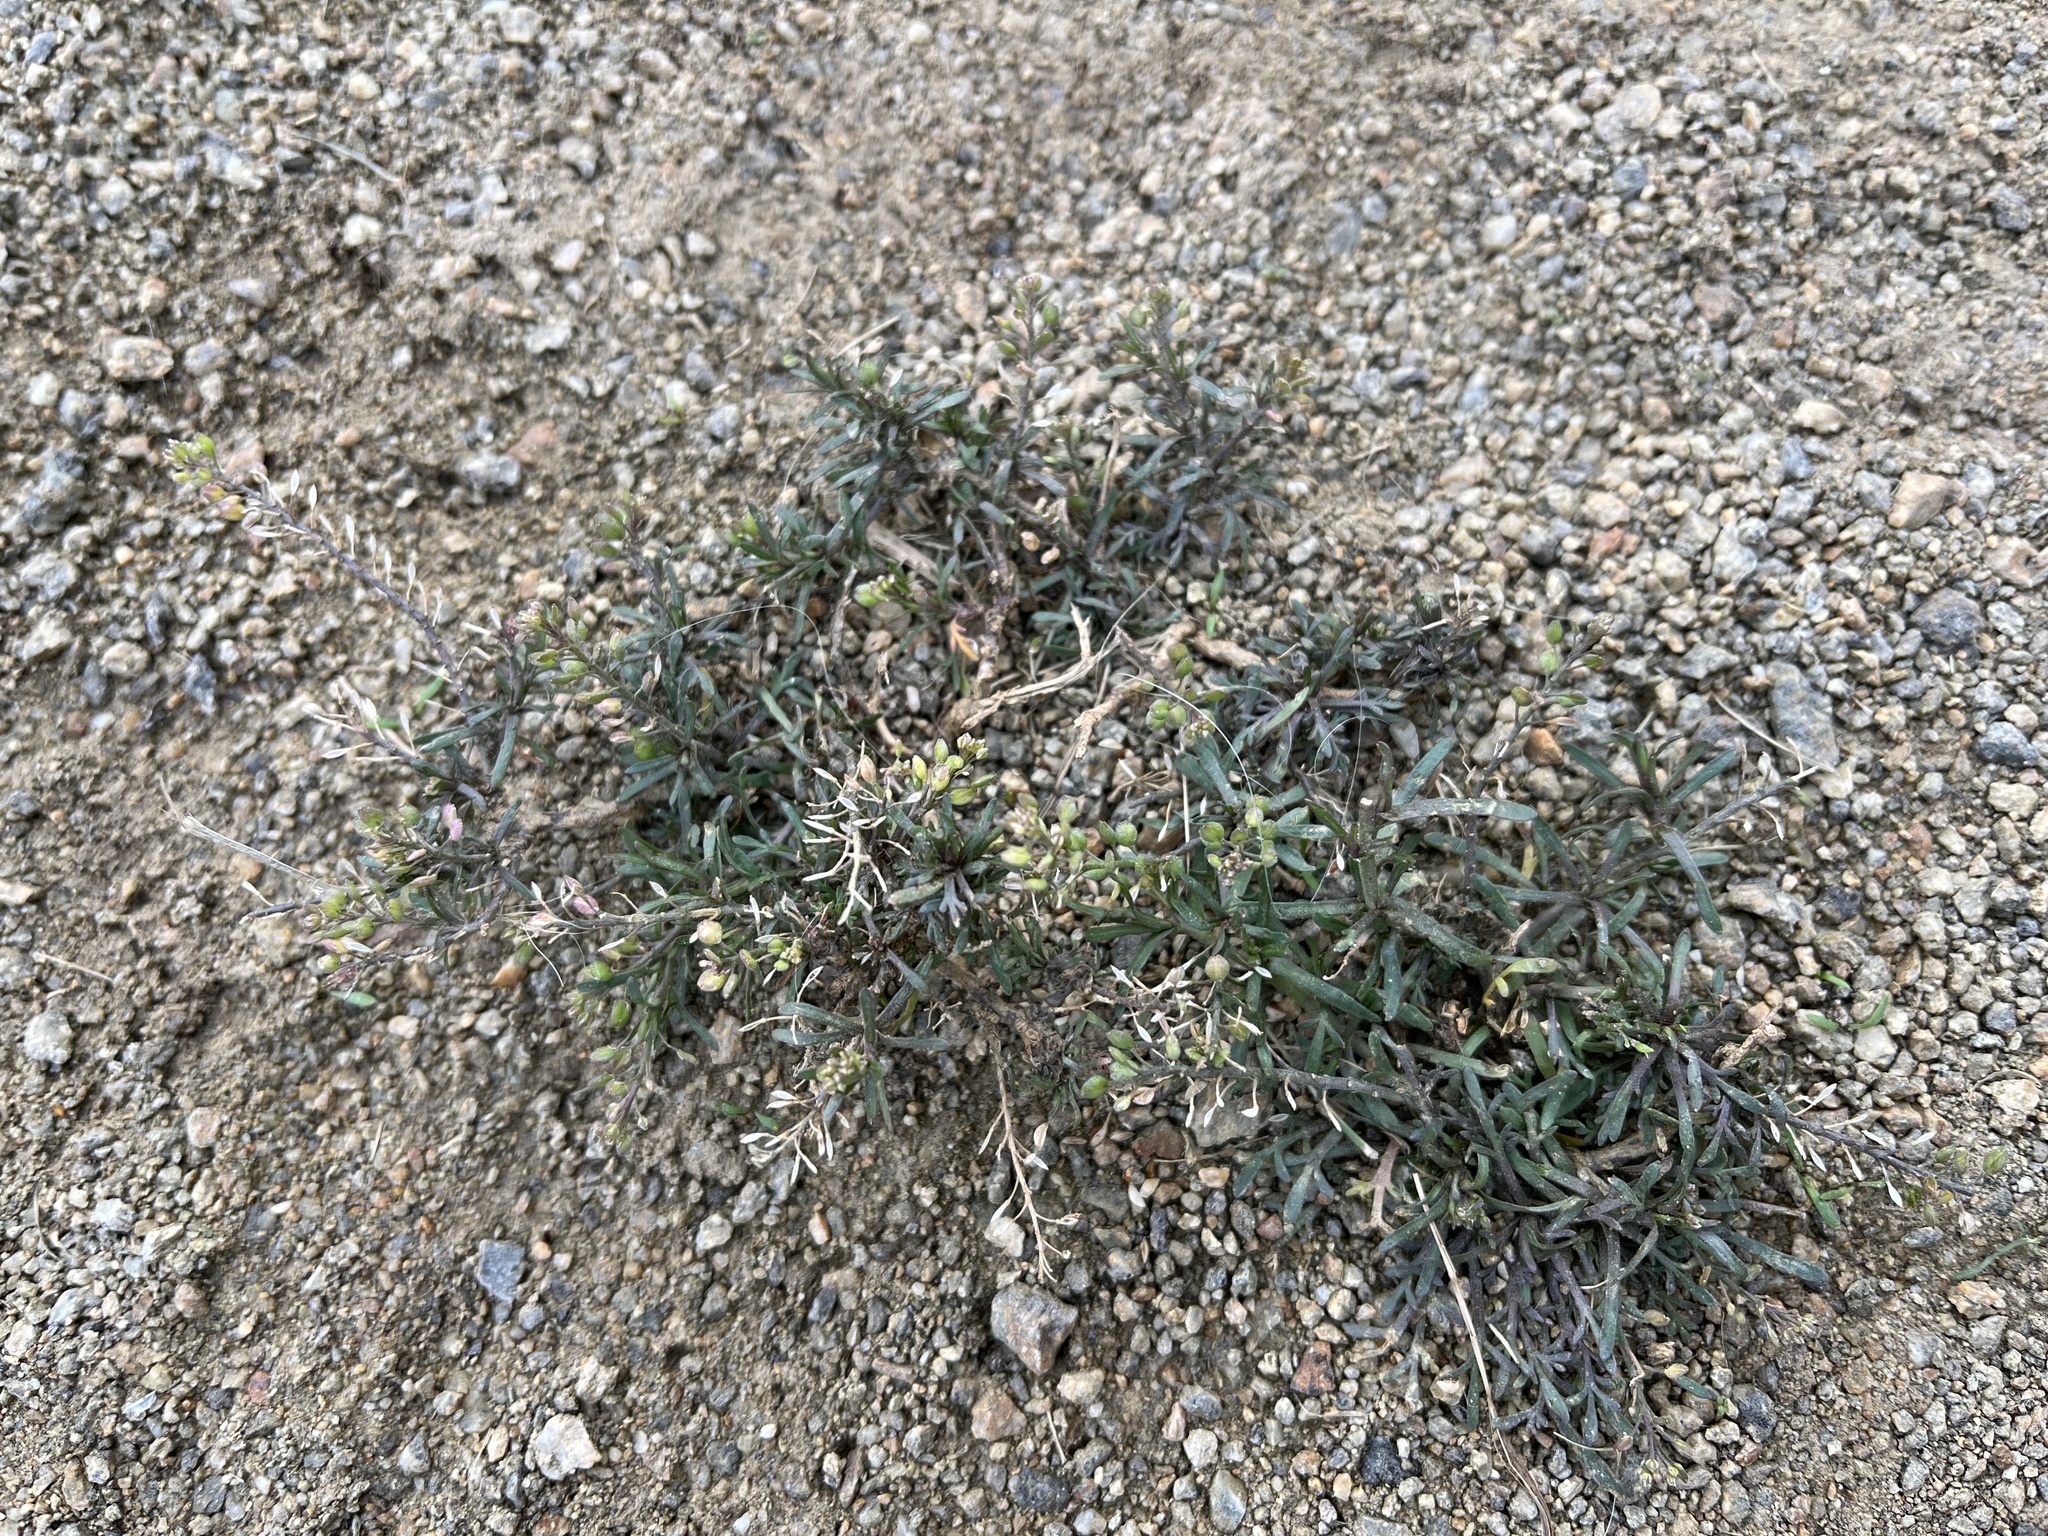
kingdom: Plantae
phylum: Tracheophyta
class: Magnoliopsida
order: Brassicales
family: Brassicaceae
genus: Lepidium
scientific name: Lepidium ruderale
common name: Narrow-leaved pepperwort
